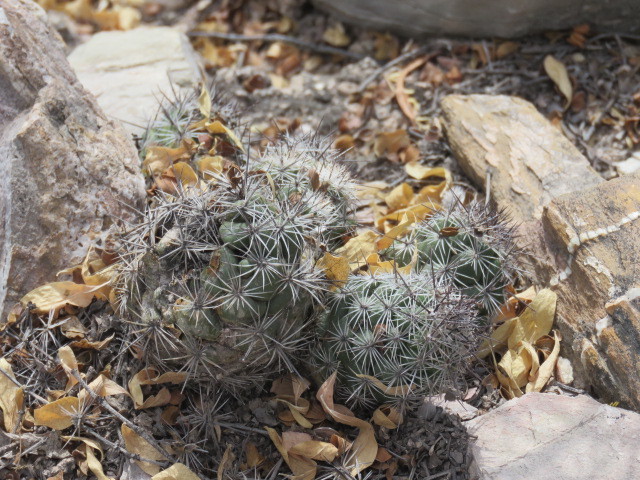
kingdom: Plantae
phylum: Tracheophyta
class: Magnoliopsida
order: Caryophyllales
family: Cactaceae
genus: Cochemiea
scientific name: Cochemiea conoidea
